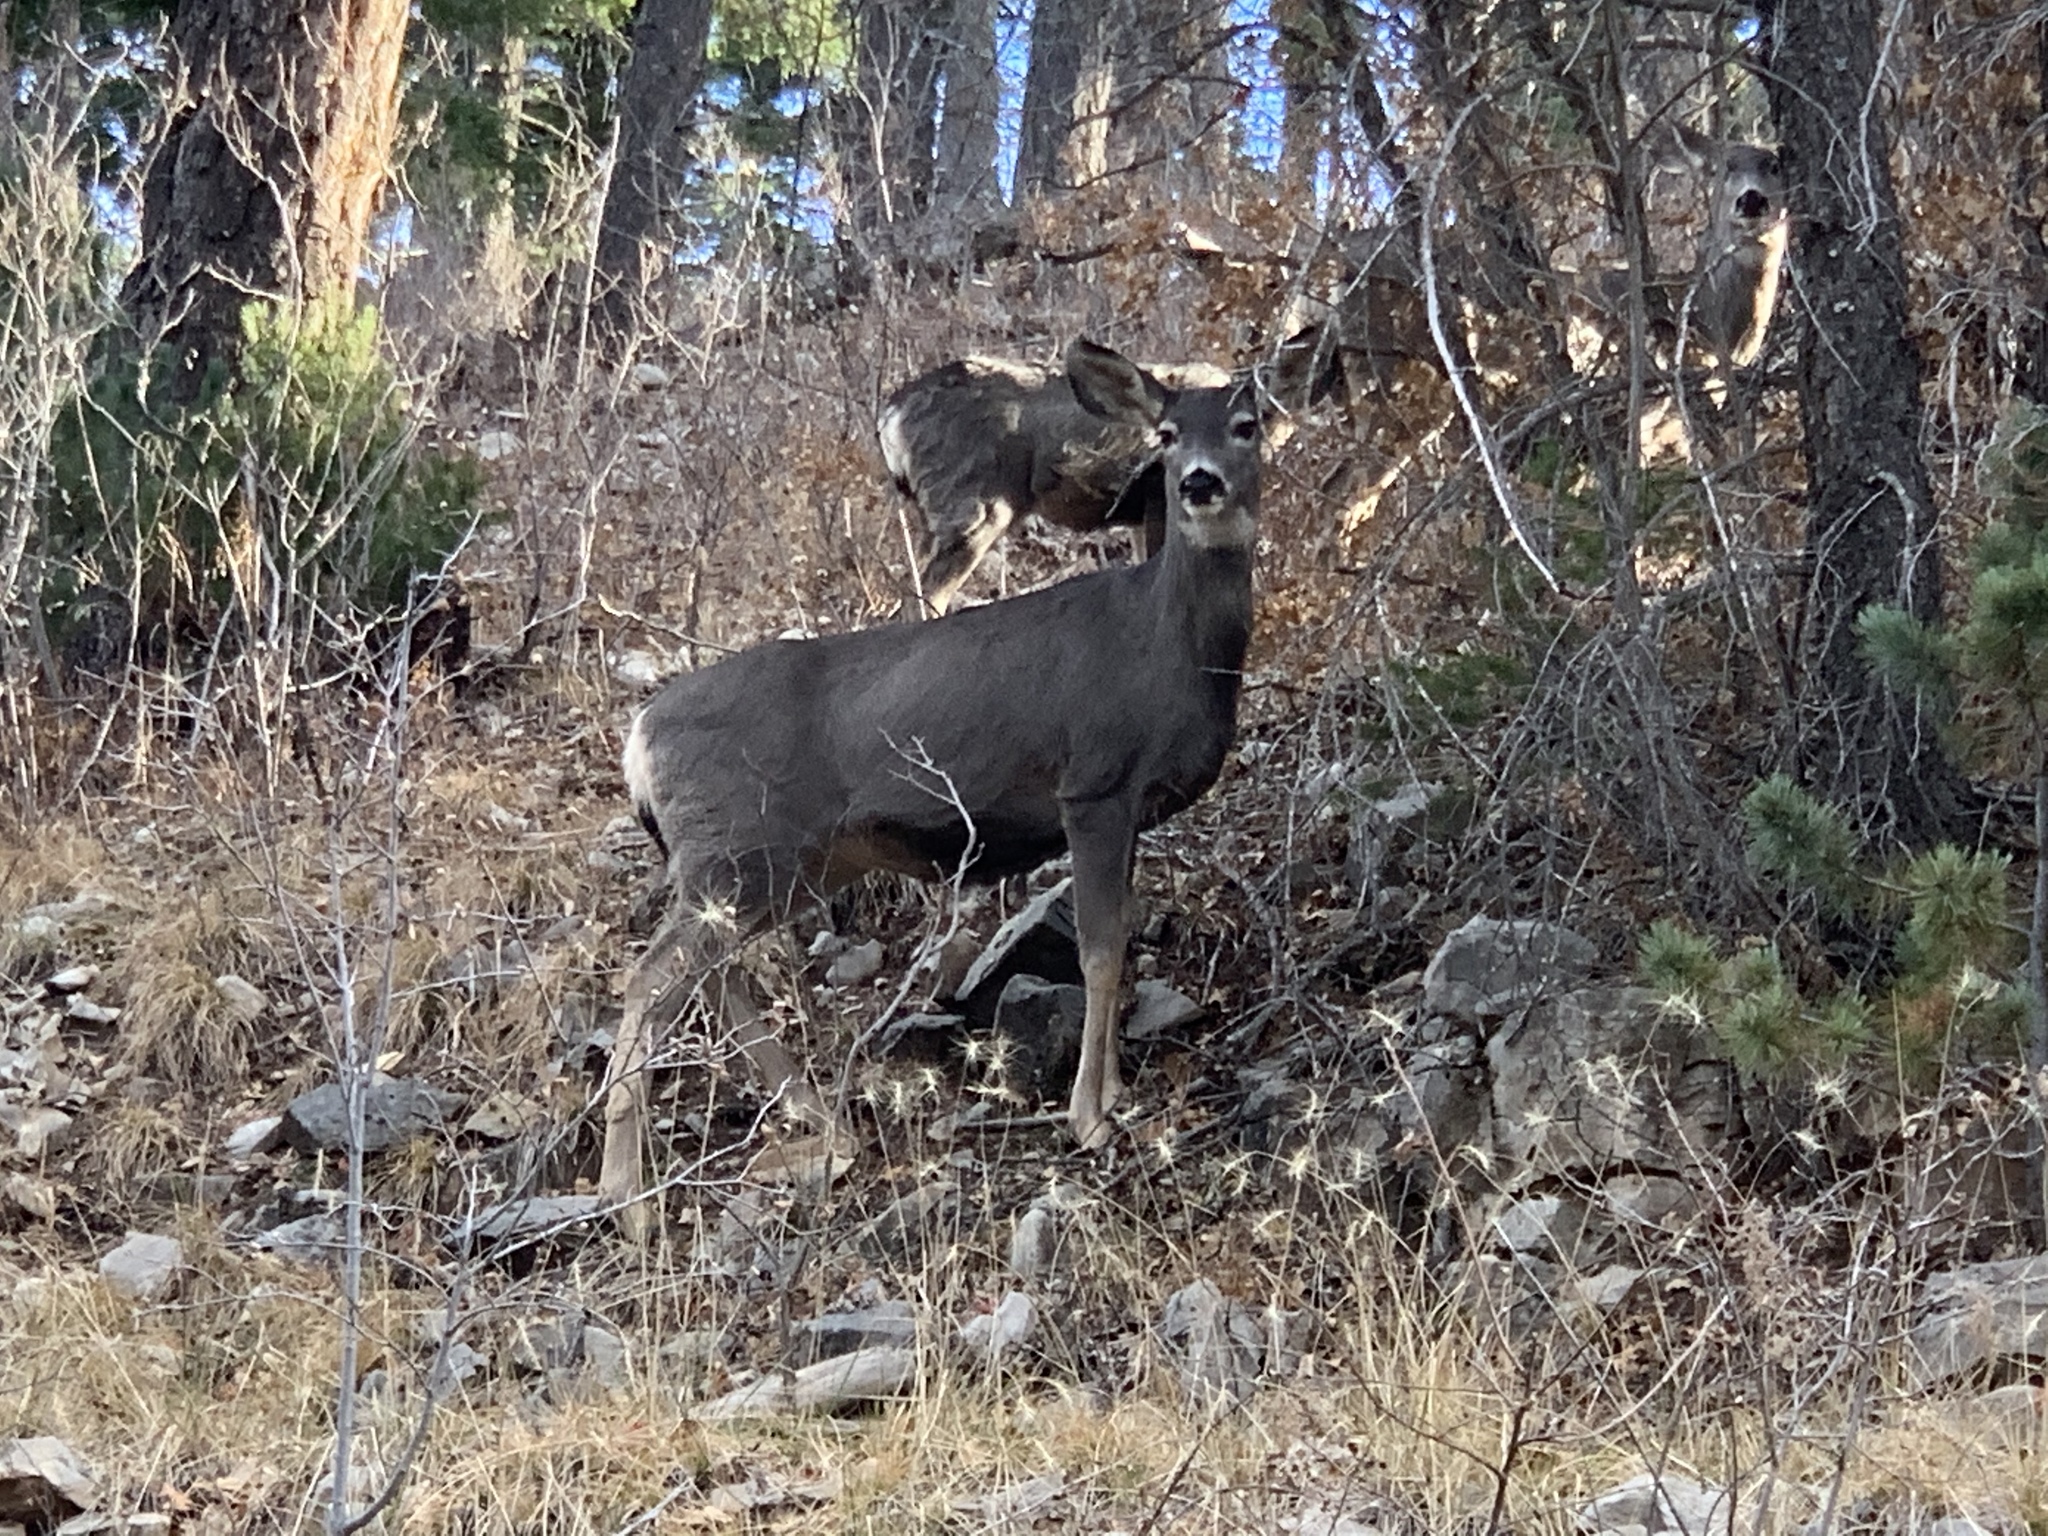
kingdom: Animalia
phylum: Chordata
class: Mammalia
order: Artiodactyla
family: Cervidae
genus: Odocoileus
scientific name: Odocoileus hemionus
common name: Mule deer
